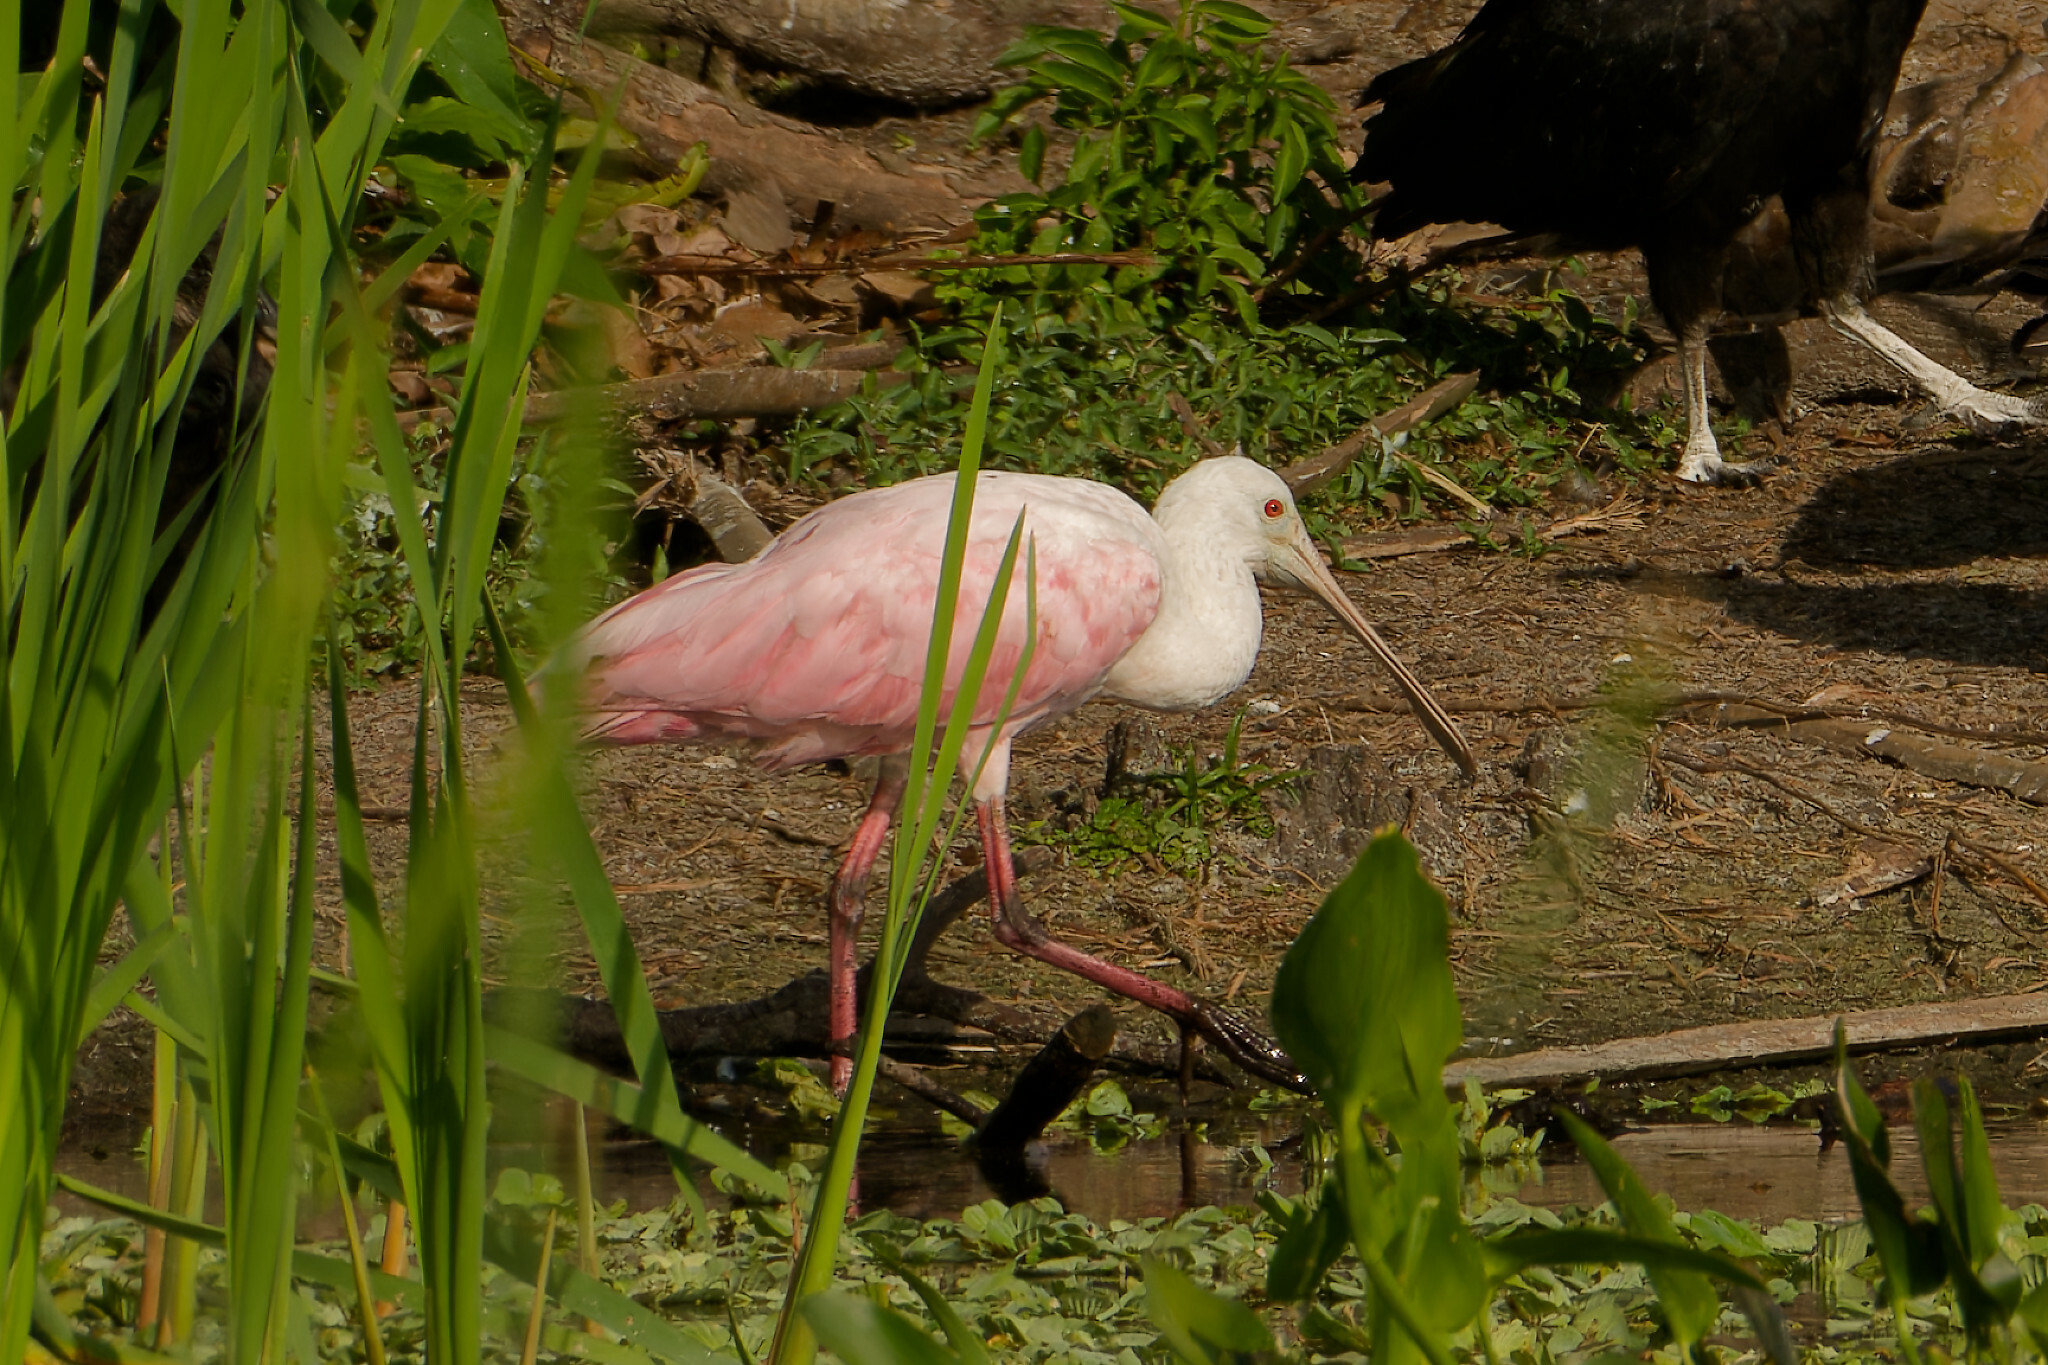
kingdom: Animalia
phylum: Chordata
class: Aves
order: Pelecaniformes
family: Threskiornithidae
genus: Platalea
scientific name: Platalea ajaja
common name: Roseate spoonbill
